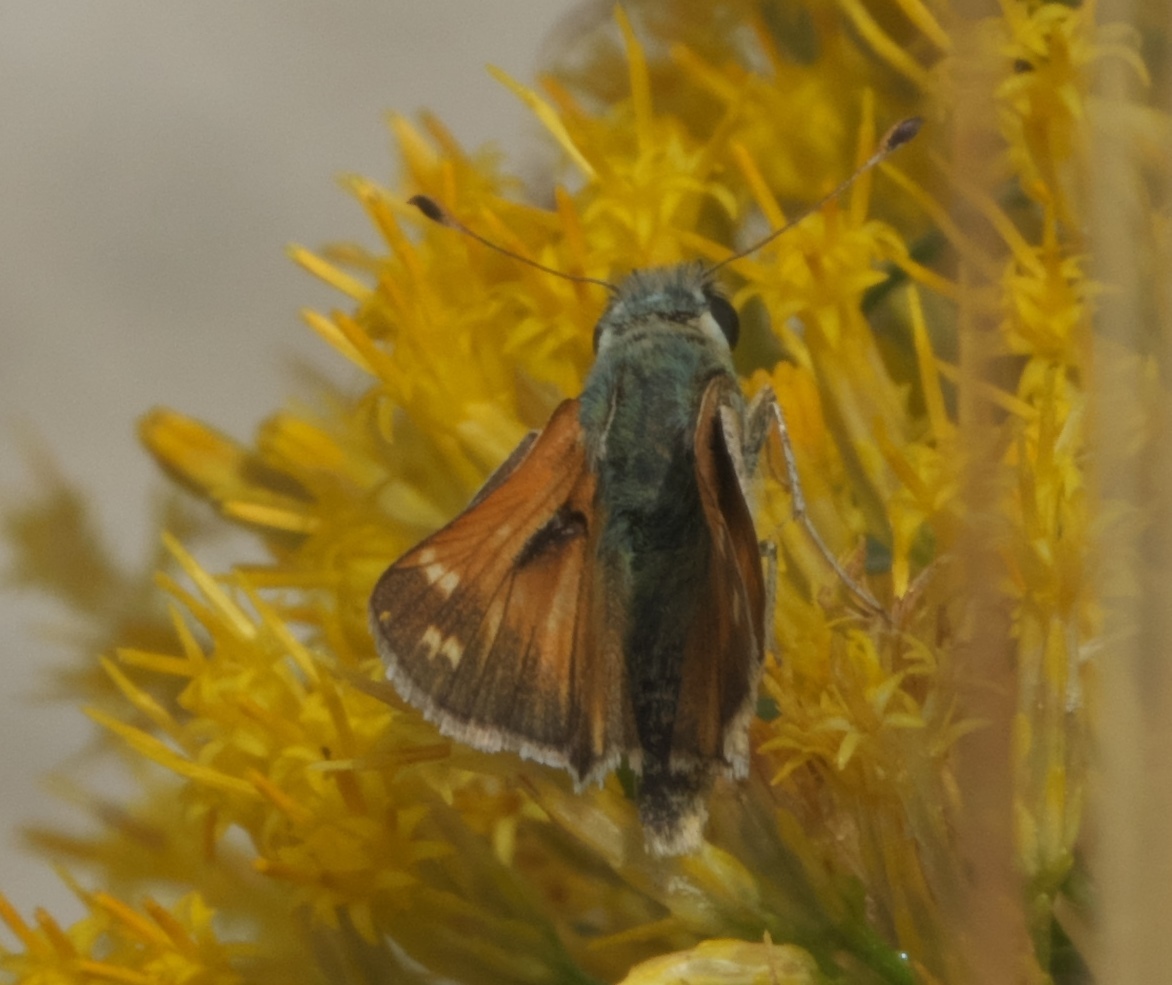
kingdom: Animalia
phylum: Arthropoda
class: Insecta
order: Lepidoptera
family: Hesperiidae
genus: Hesperia
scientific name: Hesperia comma
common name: Common branded skipper
